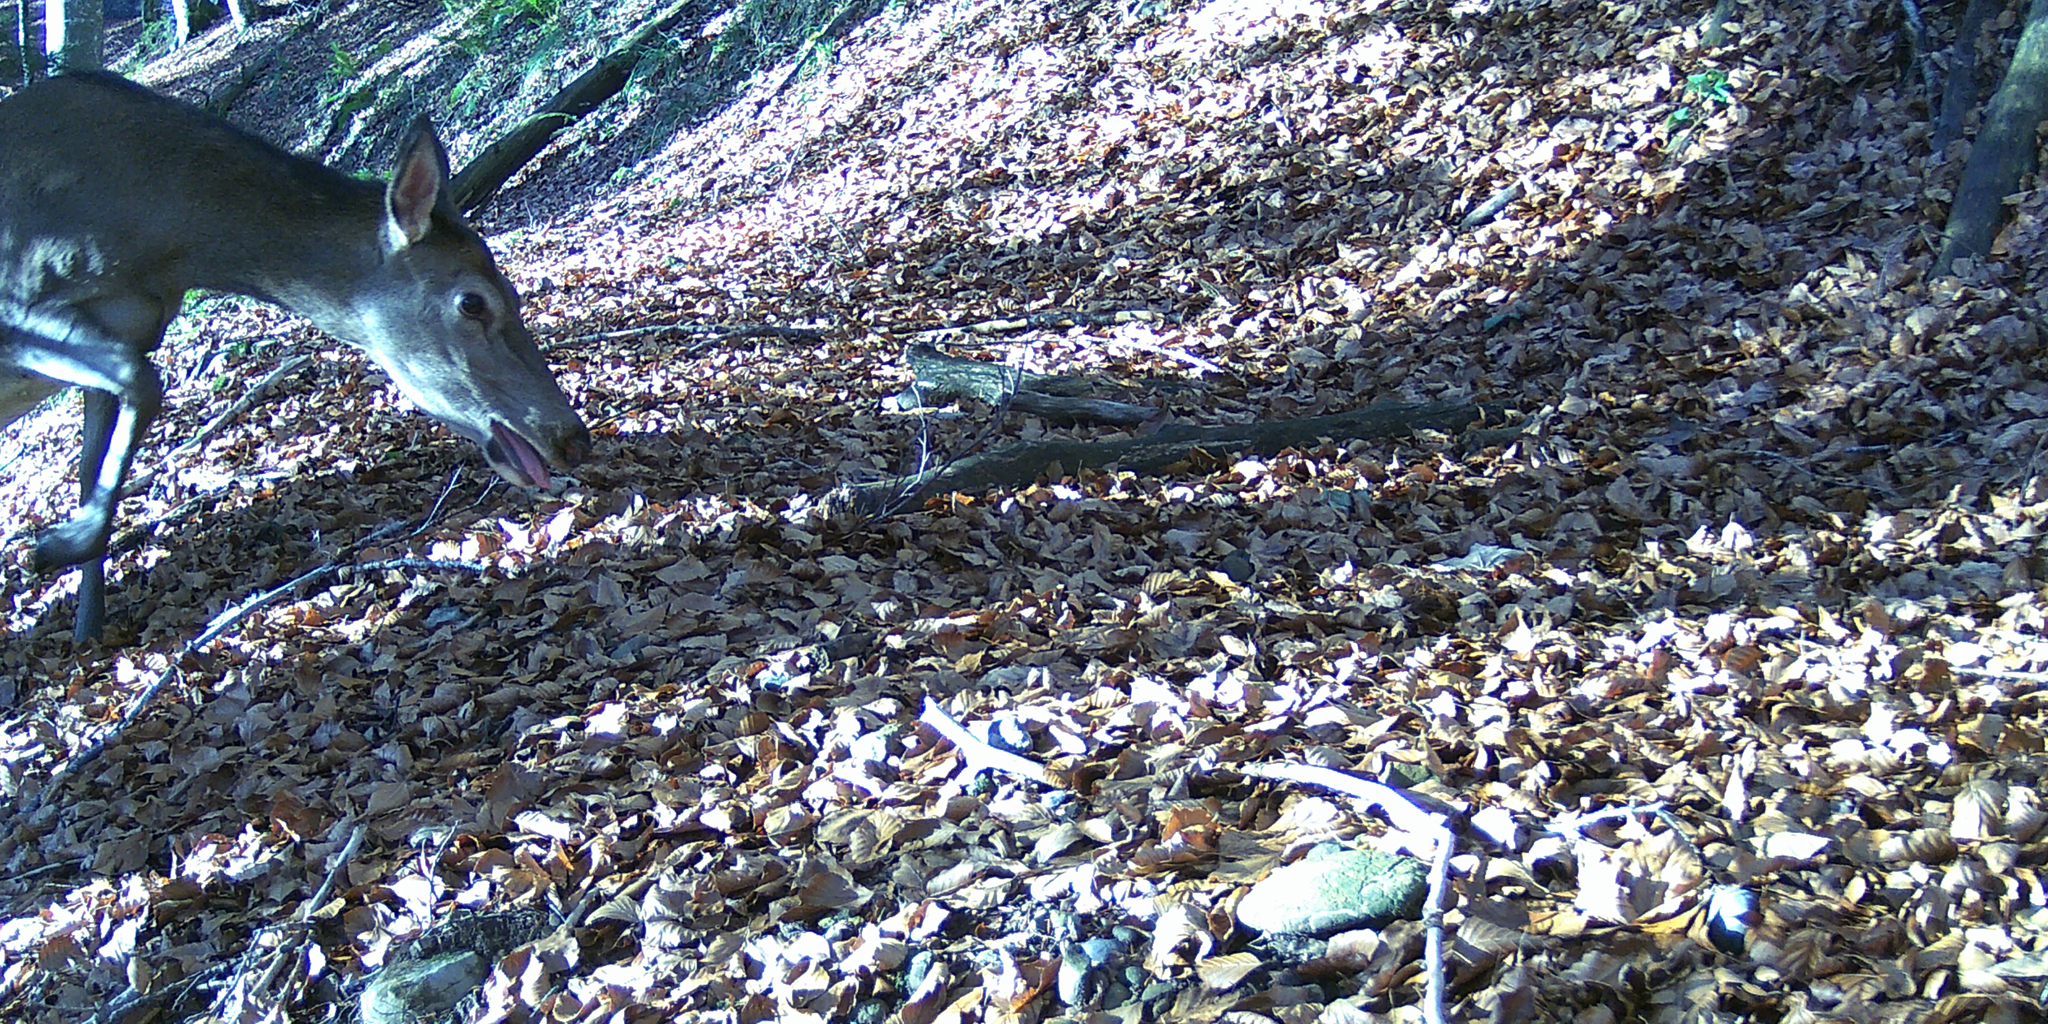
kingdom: Animalia
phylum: Chordata
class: Mammalia
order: Artiodactyla
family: Cervidae
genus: Cervus
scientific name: Cervus elaphus
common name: Red deer
